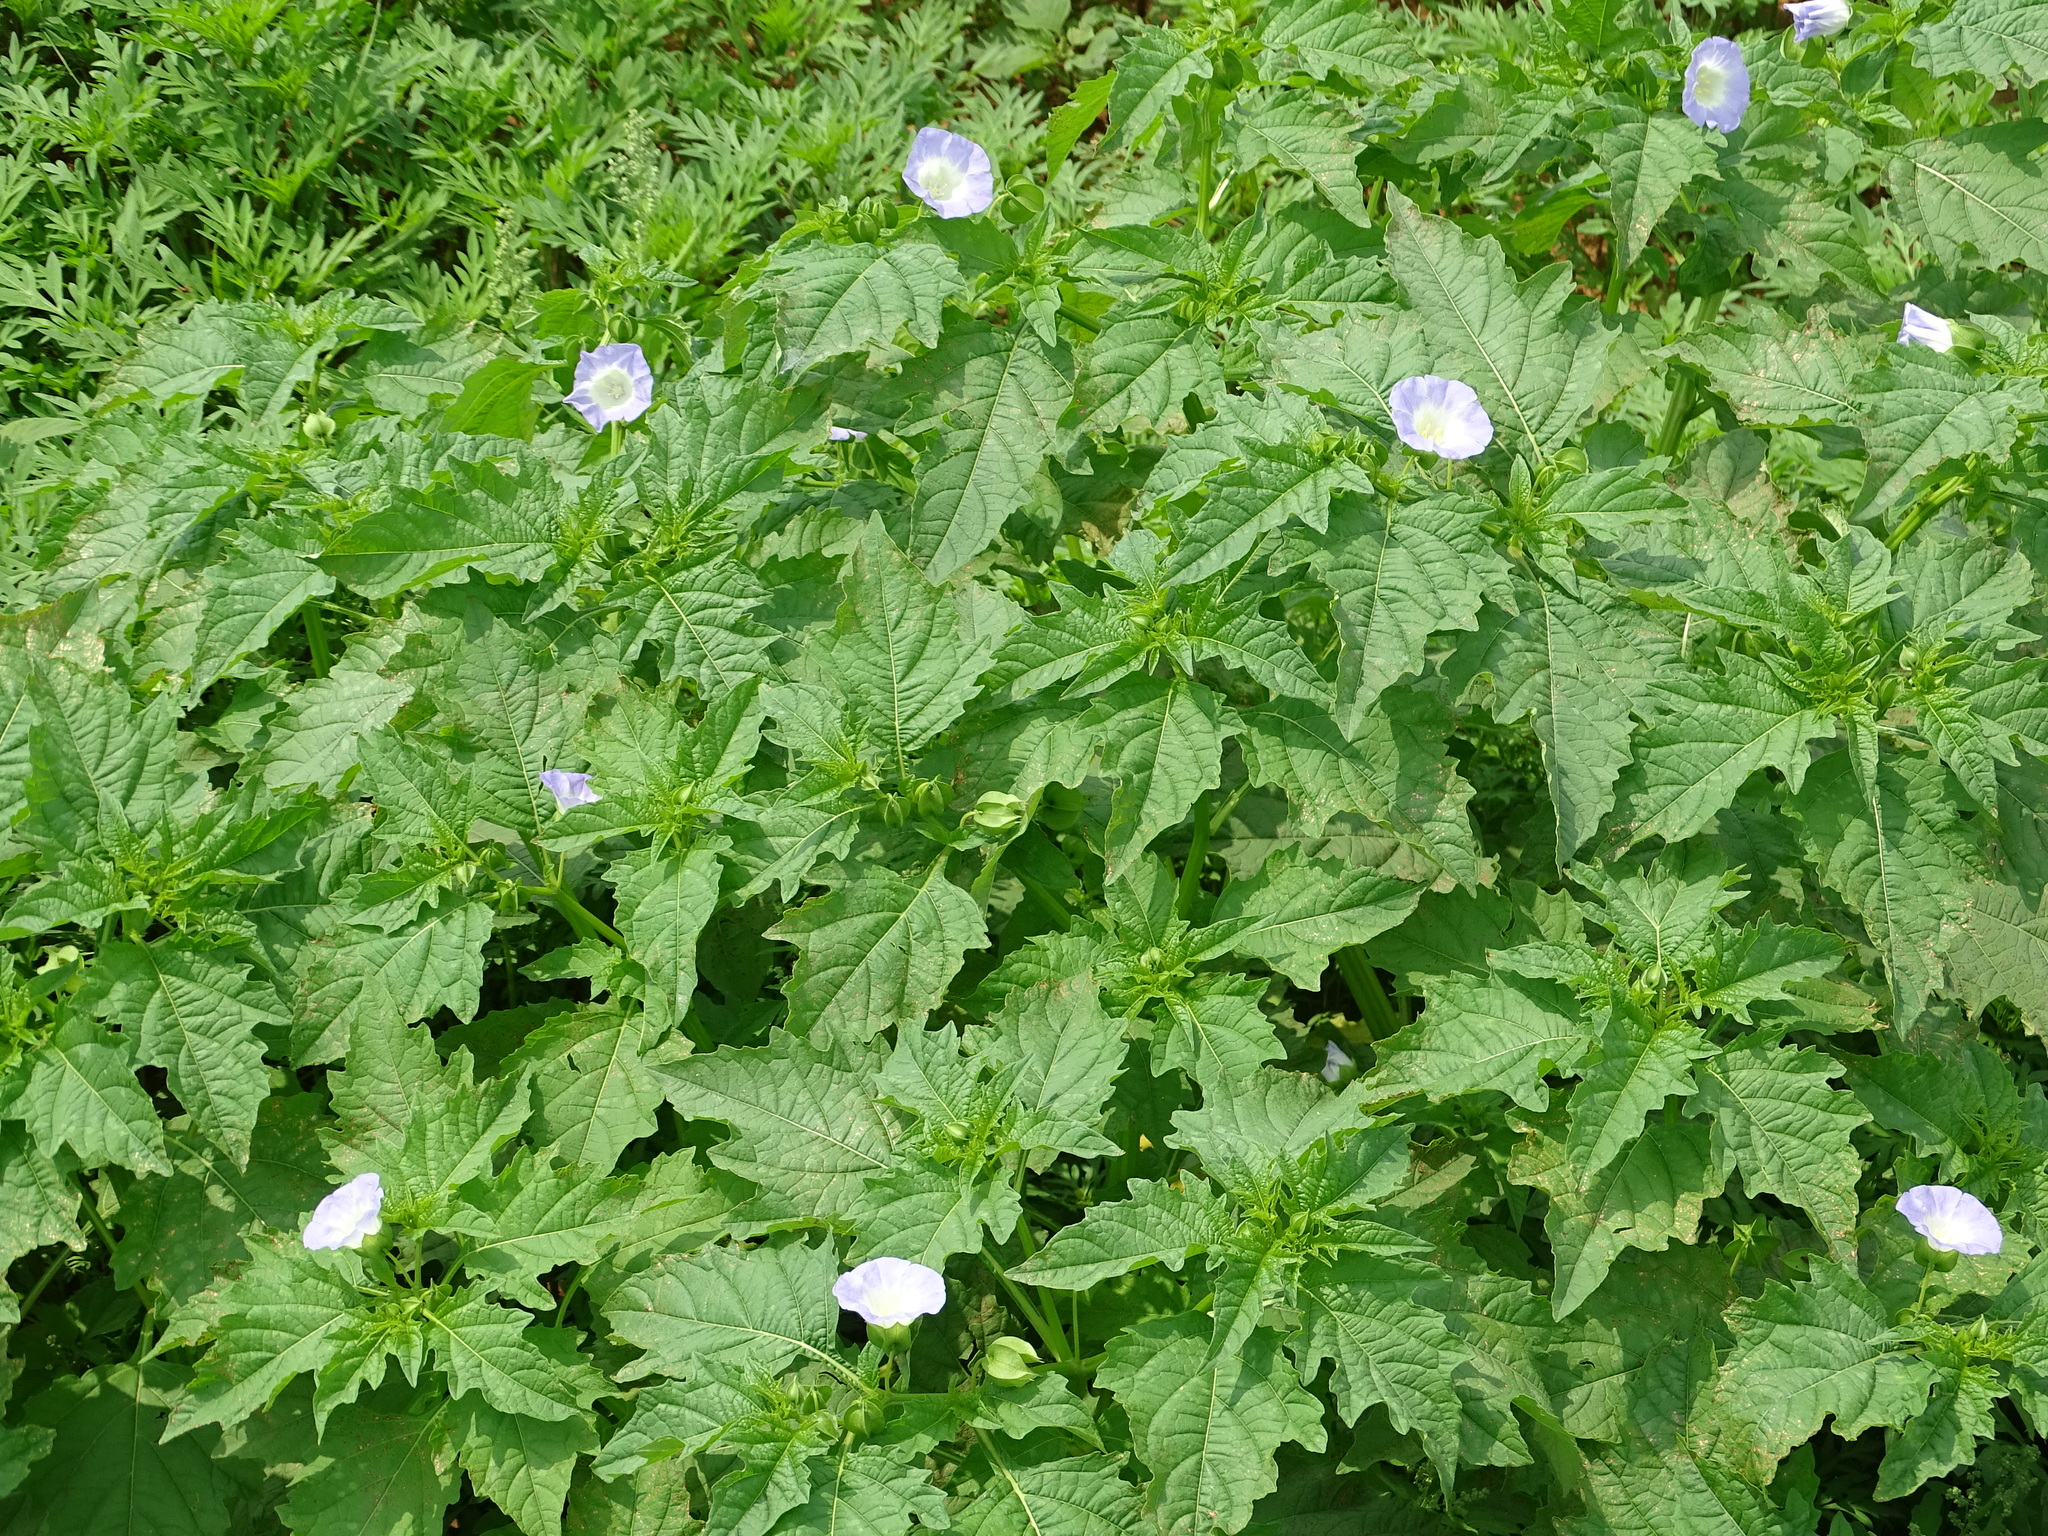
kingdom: Plantae
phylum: Tracheophyta
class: Magnoliopsida
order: Solanales
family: Solanaceae
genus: Nicandra
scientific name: Nicandra physalodes
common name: Apple-of-peru
